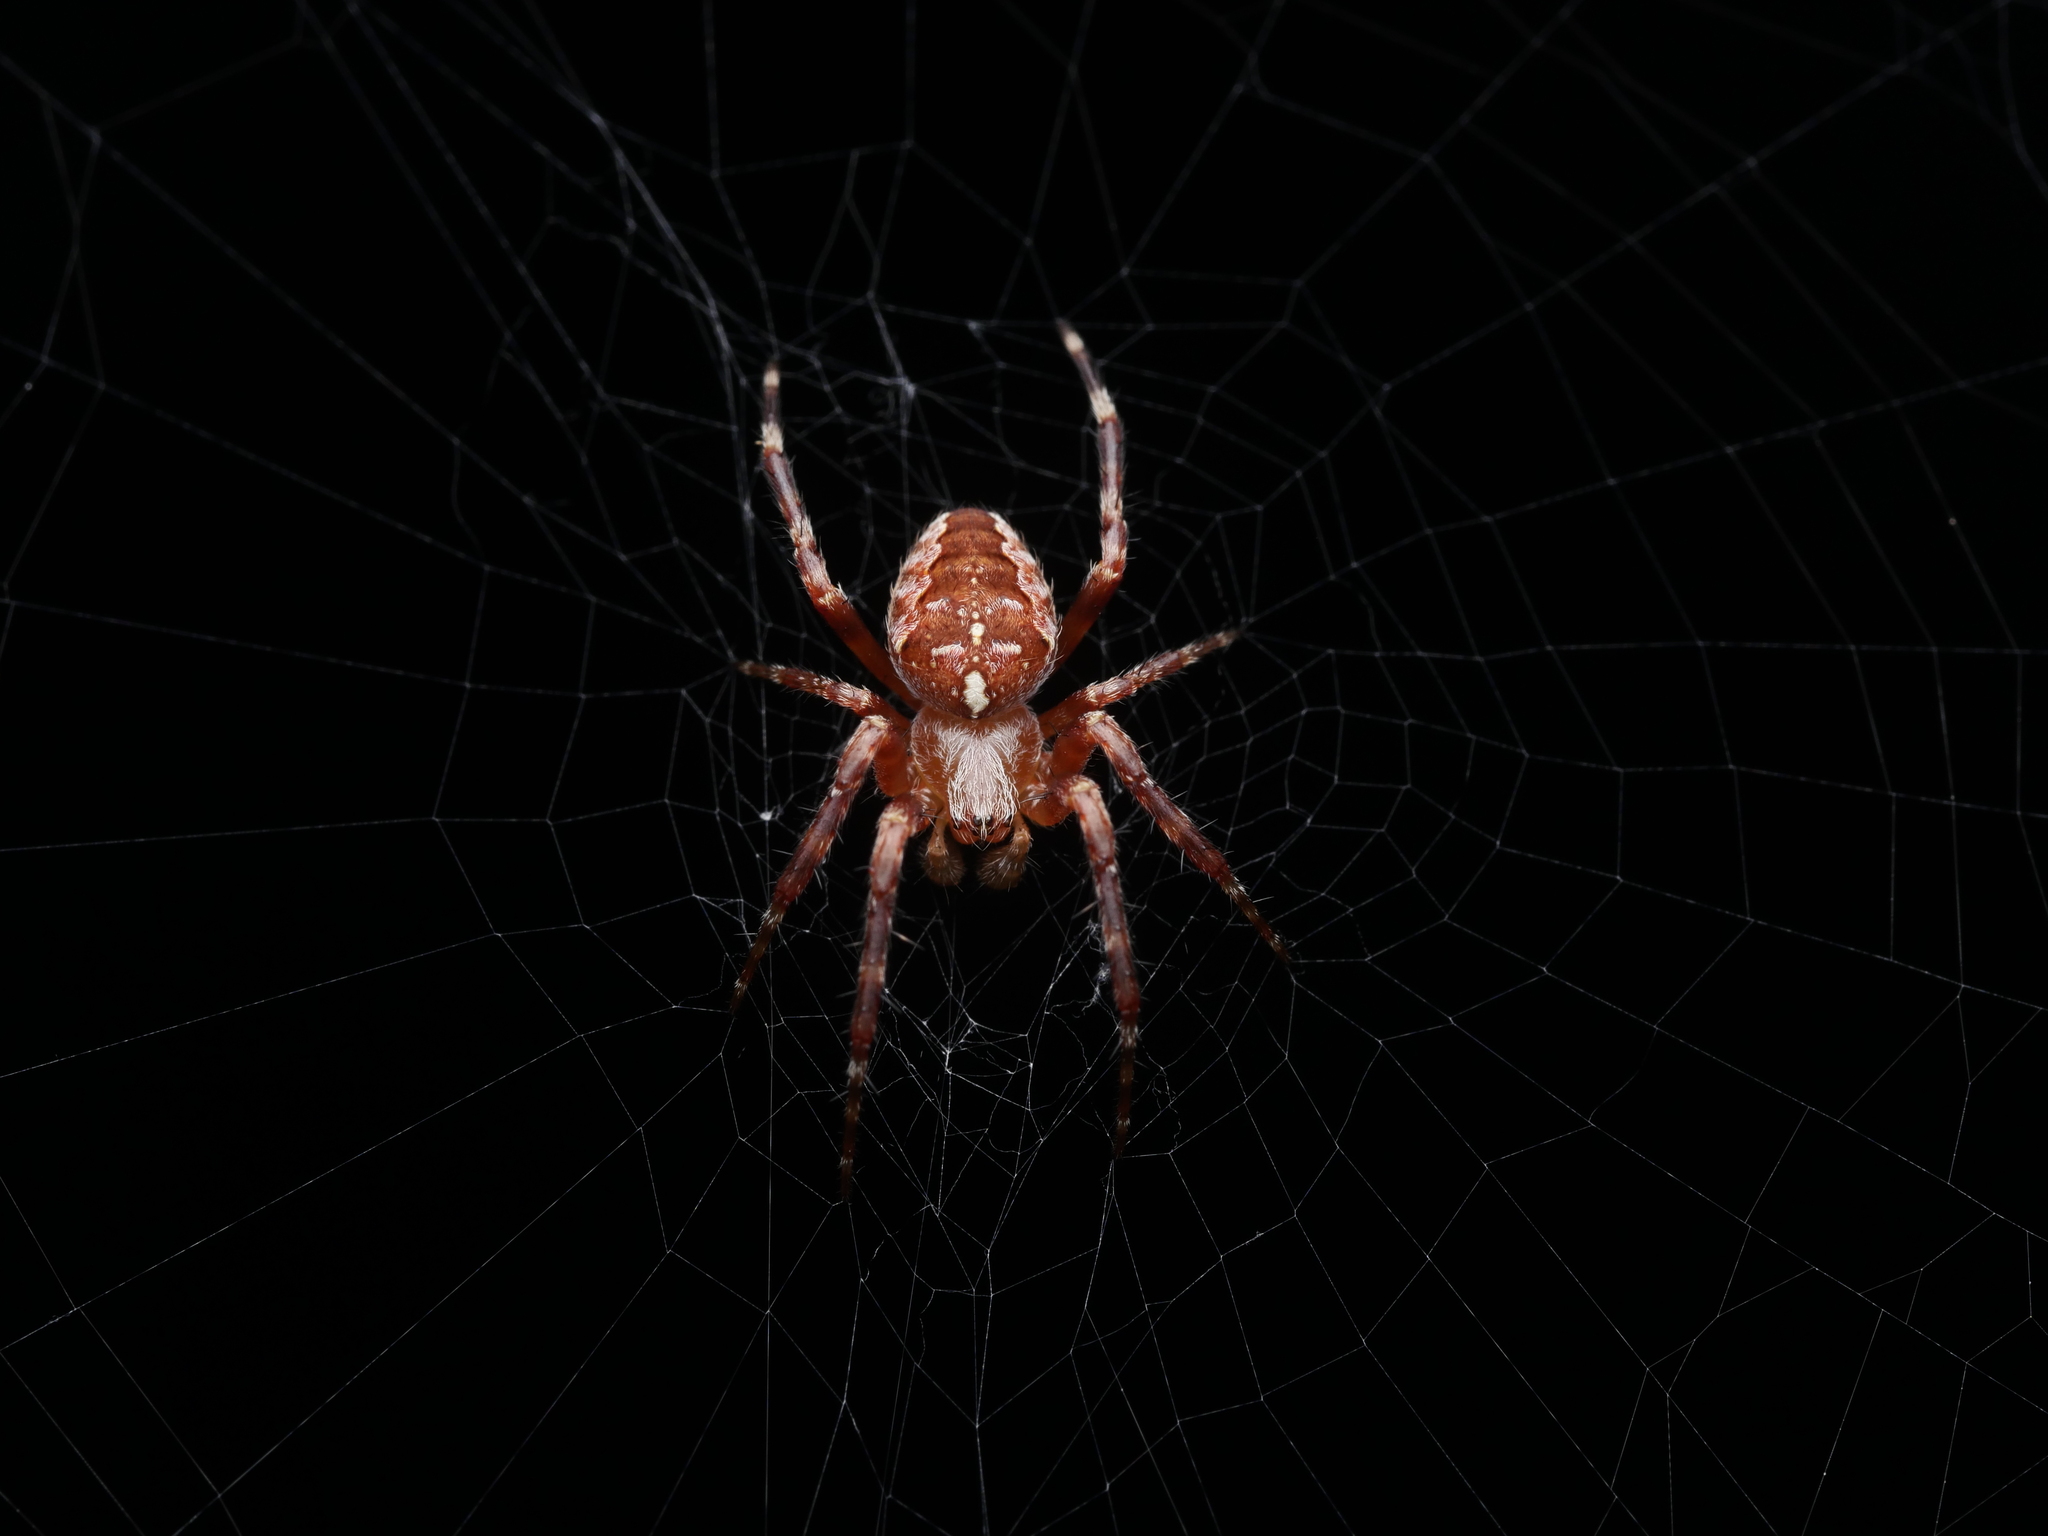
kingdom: Animalia
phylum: Arthropoda
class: Arachnida
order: Araneae
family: Araneidae
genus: Araneus
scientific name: Araneus diadematus
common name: Cross orbweaver
